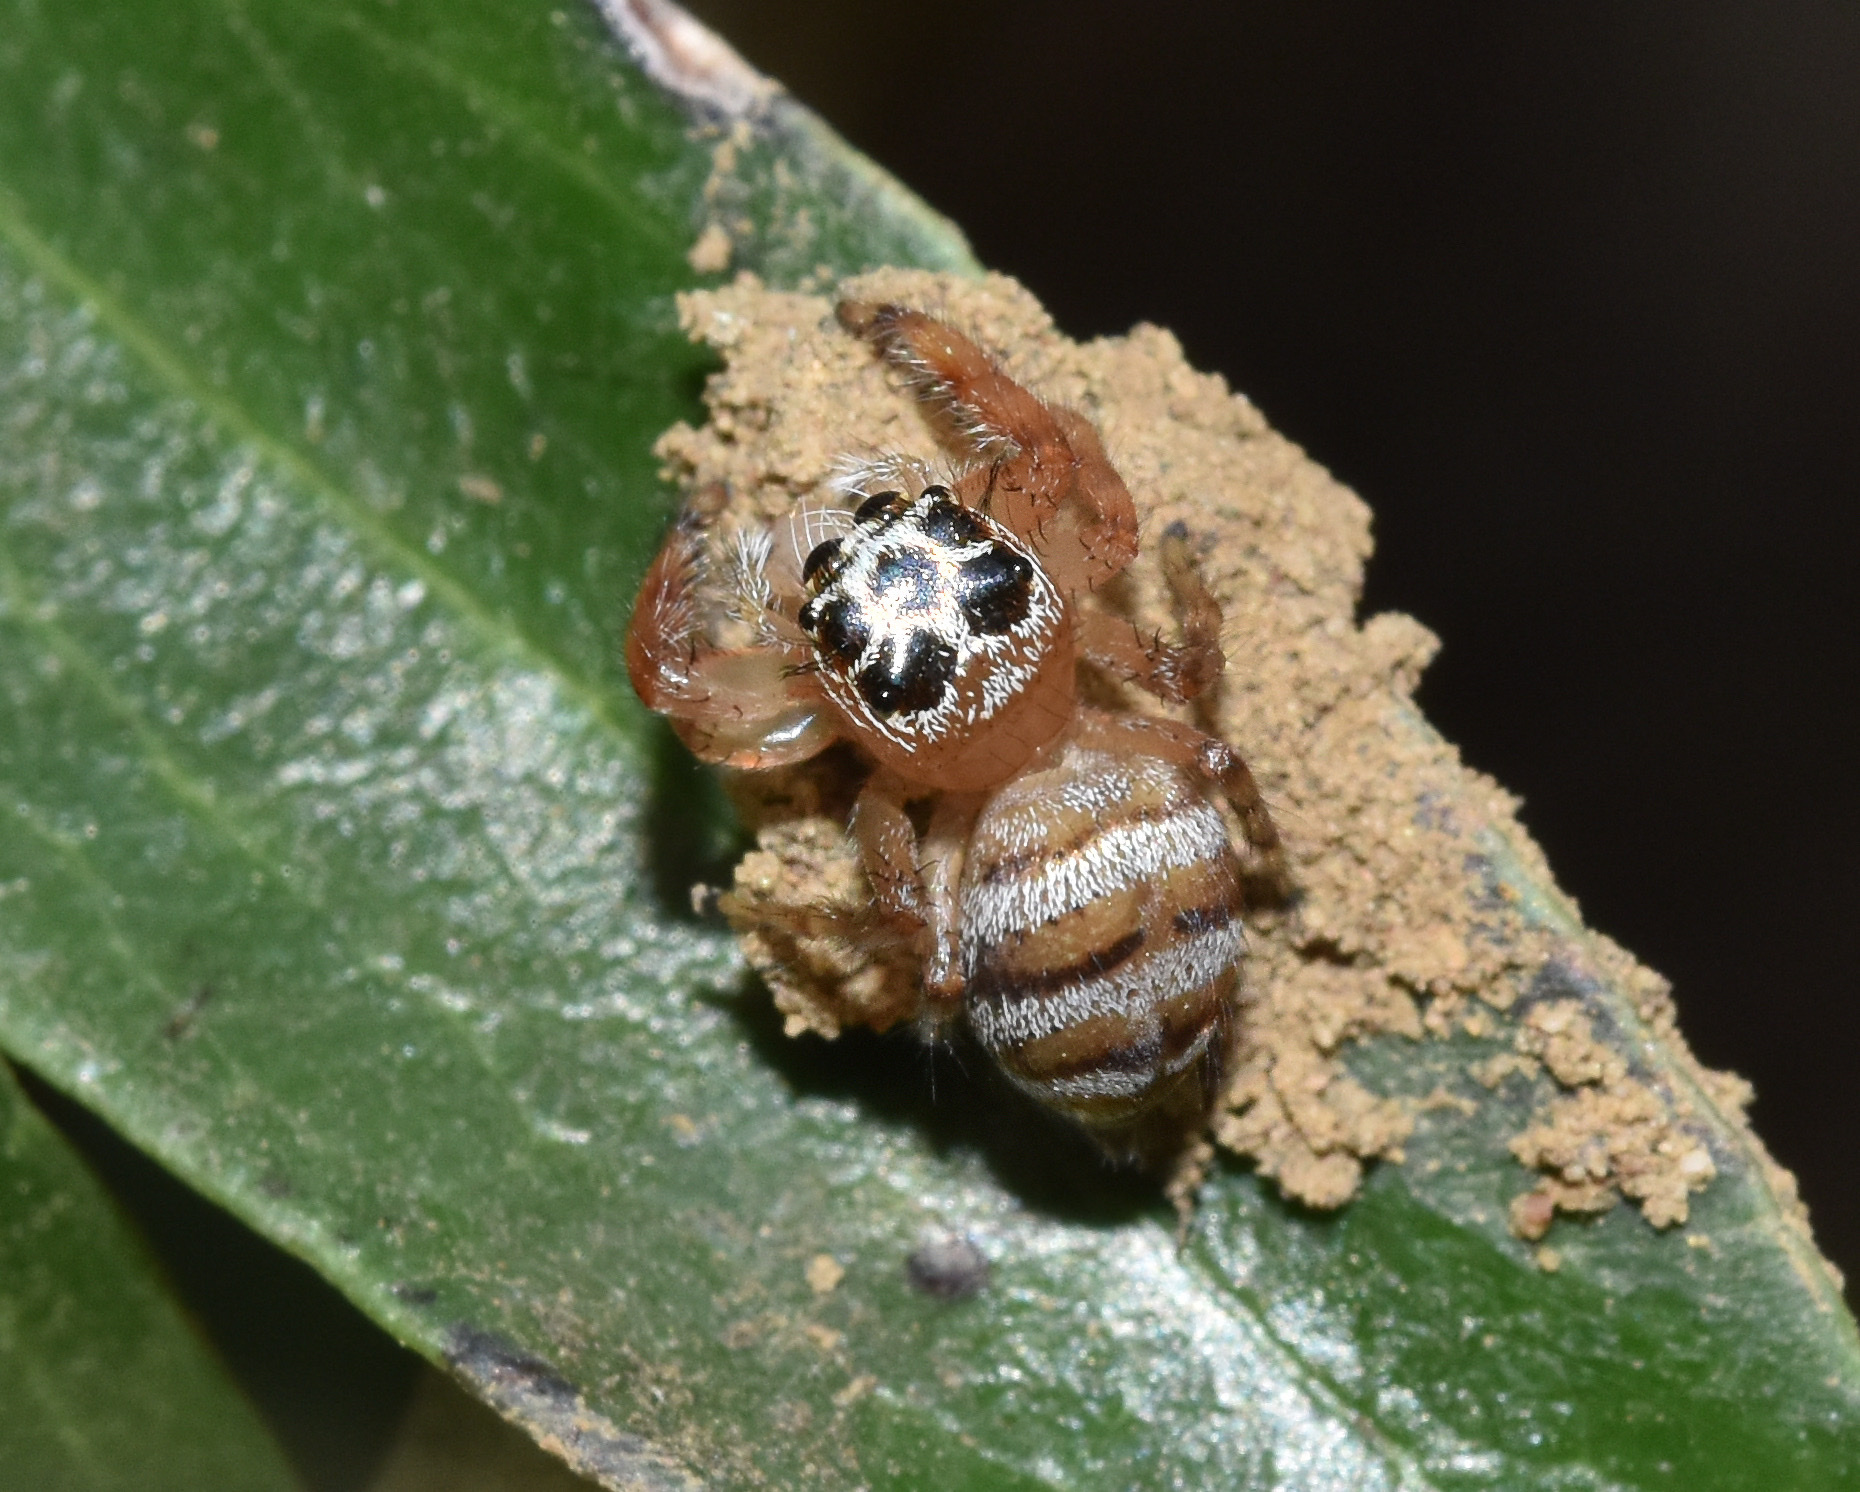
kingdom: Animalia
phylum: Arthropoda
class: Arachnida
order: Araneae
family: Salticidae
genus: Thyene
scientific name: Thyene natalii
